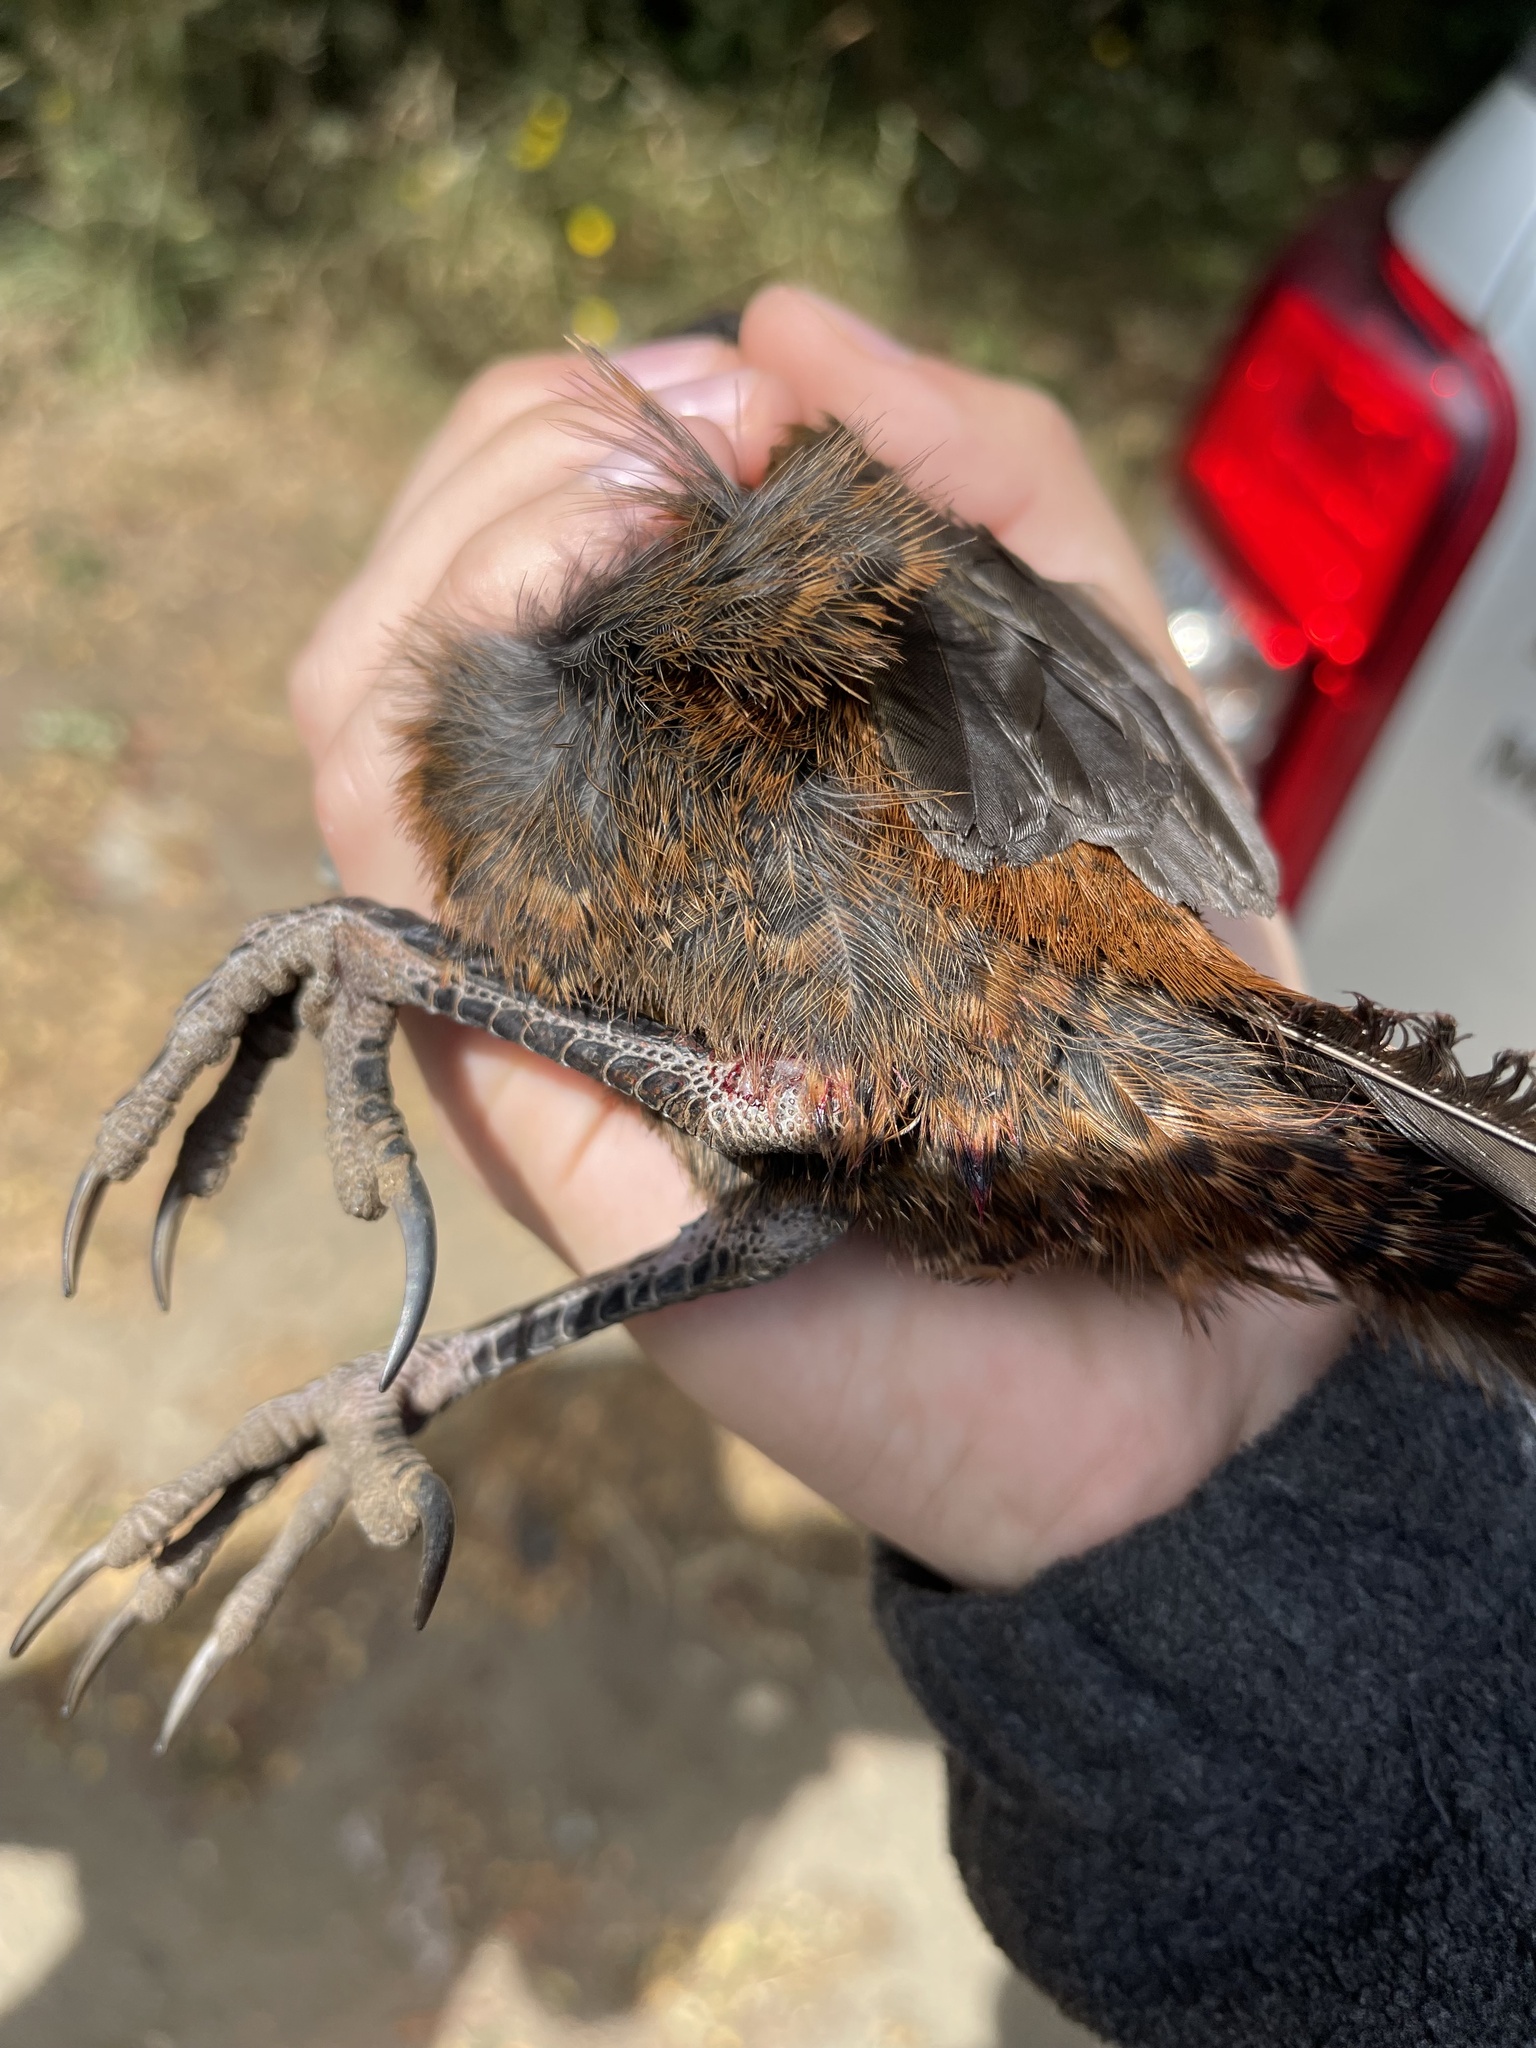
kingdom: Animalia
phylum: Chordata
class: Aves
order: Passeriformes
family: Rhinocryptidae
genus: Pteroptochos
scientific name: Pteroptochos tarnii
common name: Black-throated huet-huet
